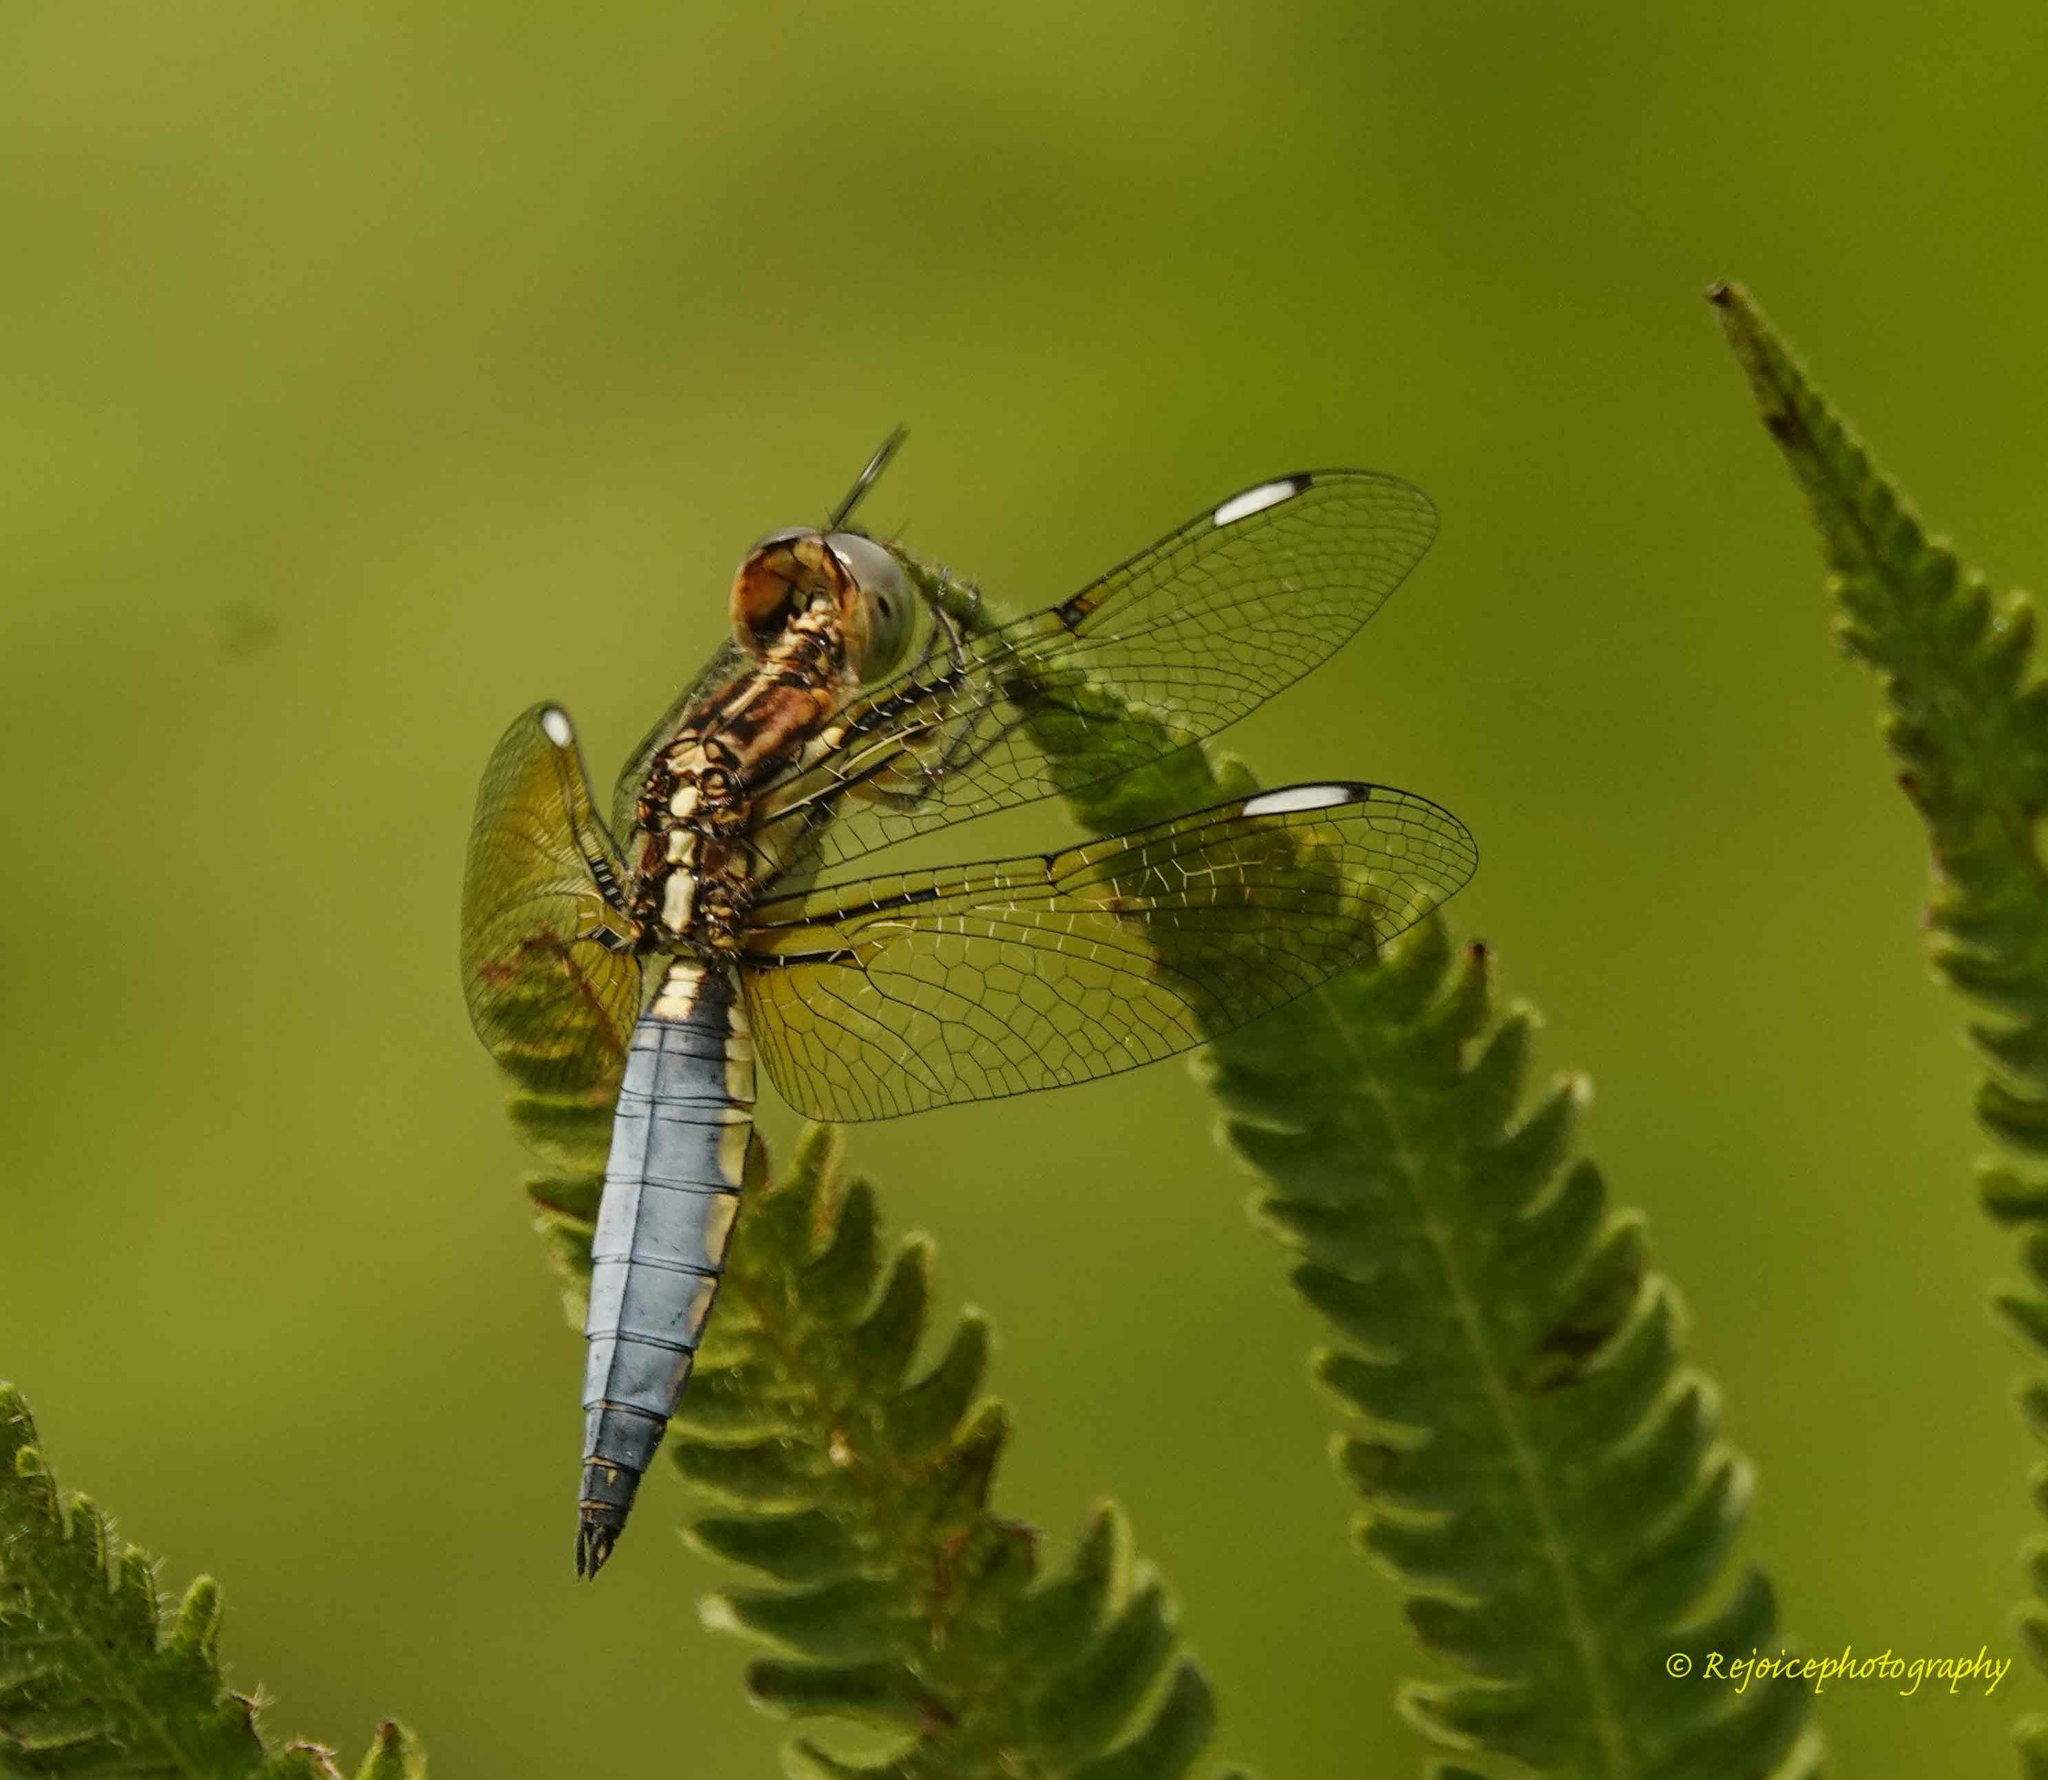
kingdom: Animalia
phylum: Arthropoda
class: Insecta
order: Odonata
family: Libellulidae
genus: Palpopleura
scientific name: Palpopleura sexmaculata
